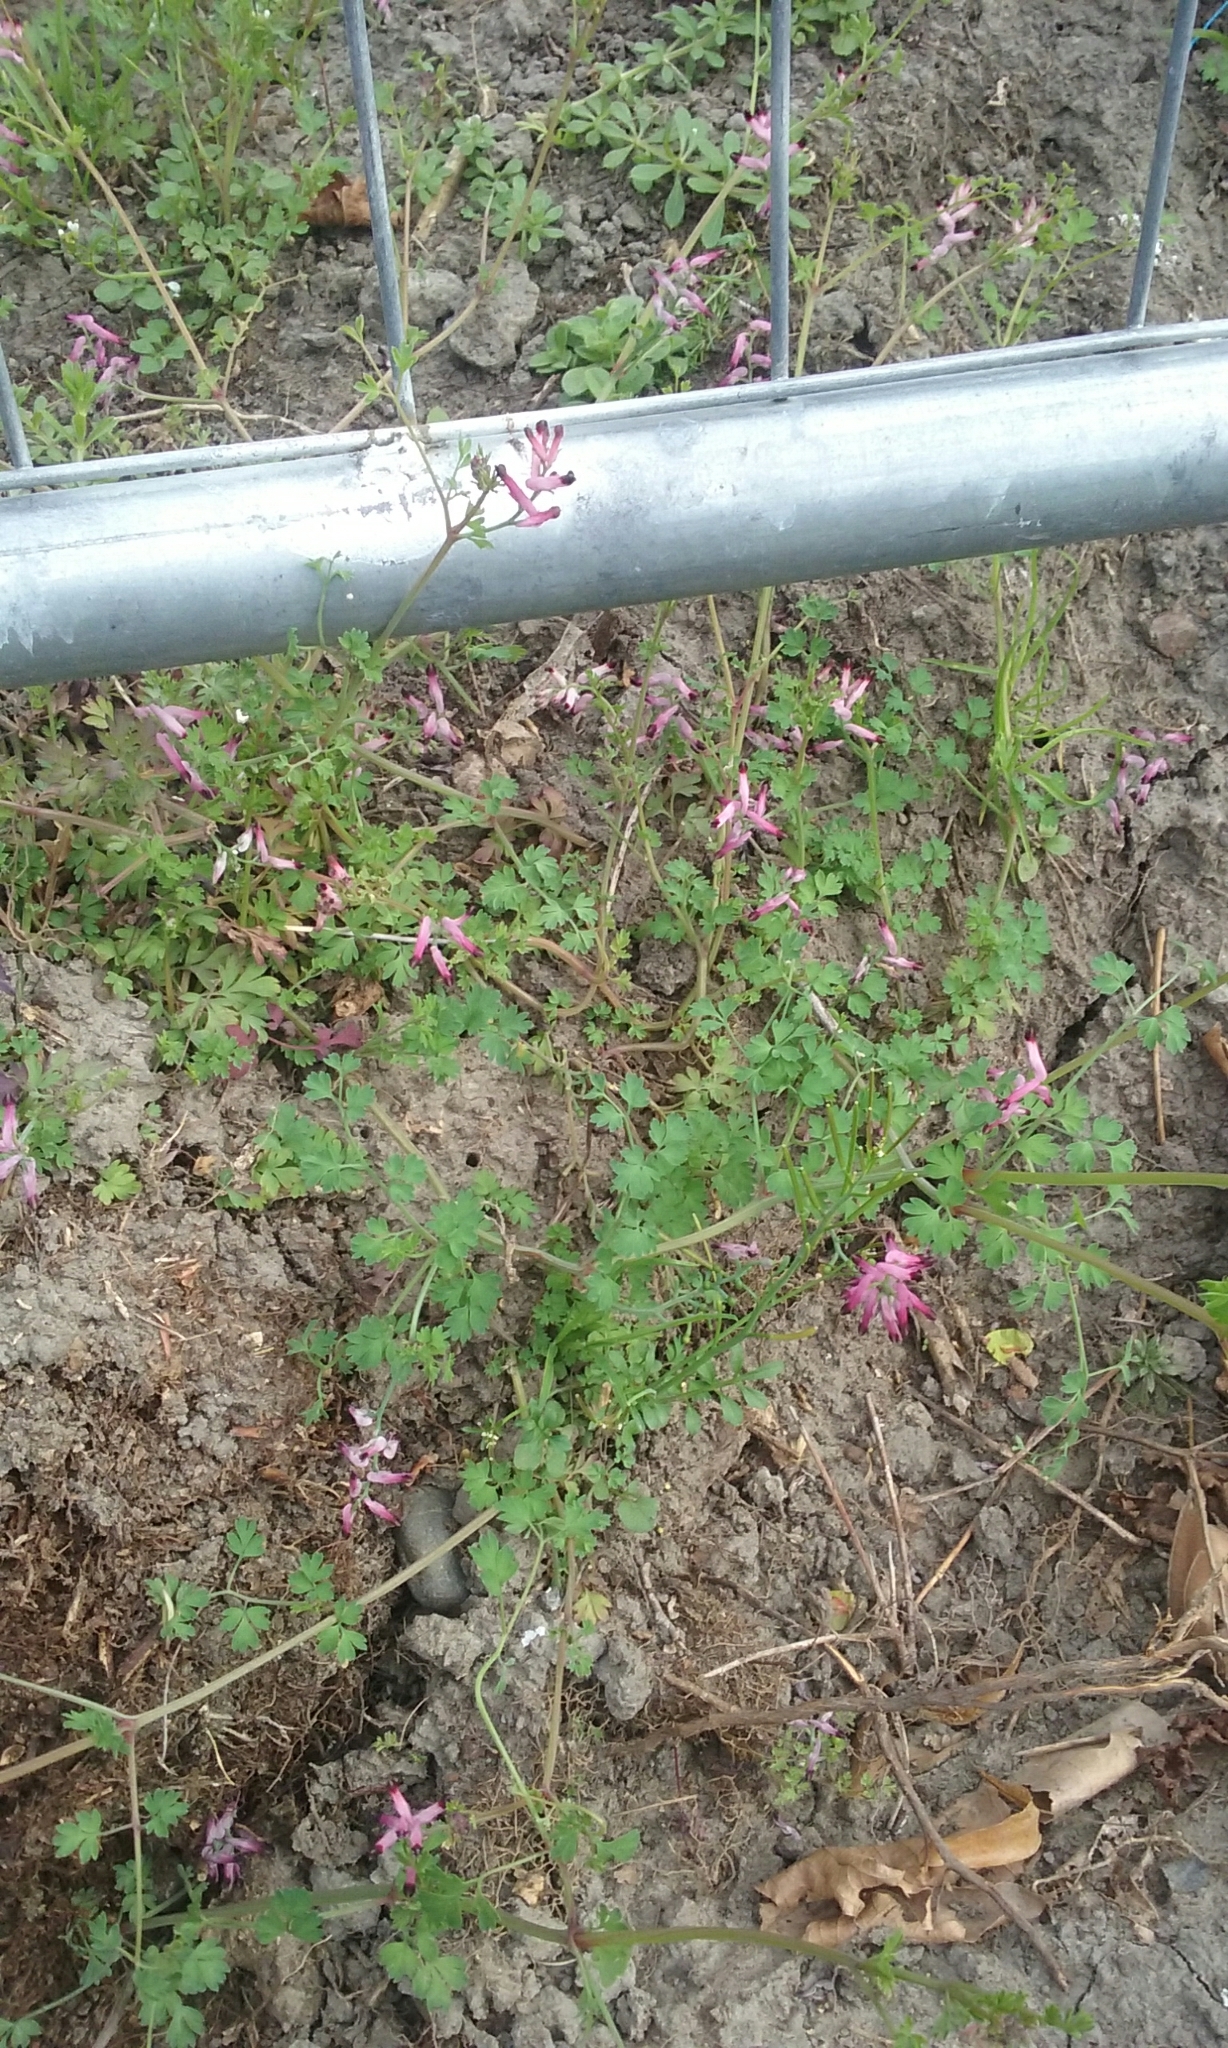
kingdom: Plantae
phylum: Tracheophyta
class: Magnoliopsida
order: Ranunculales
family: Papaveraceae
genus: Fumaria
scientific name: Fumaria muralis
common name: Common ramping-fumitory
